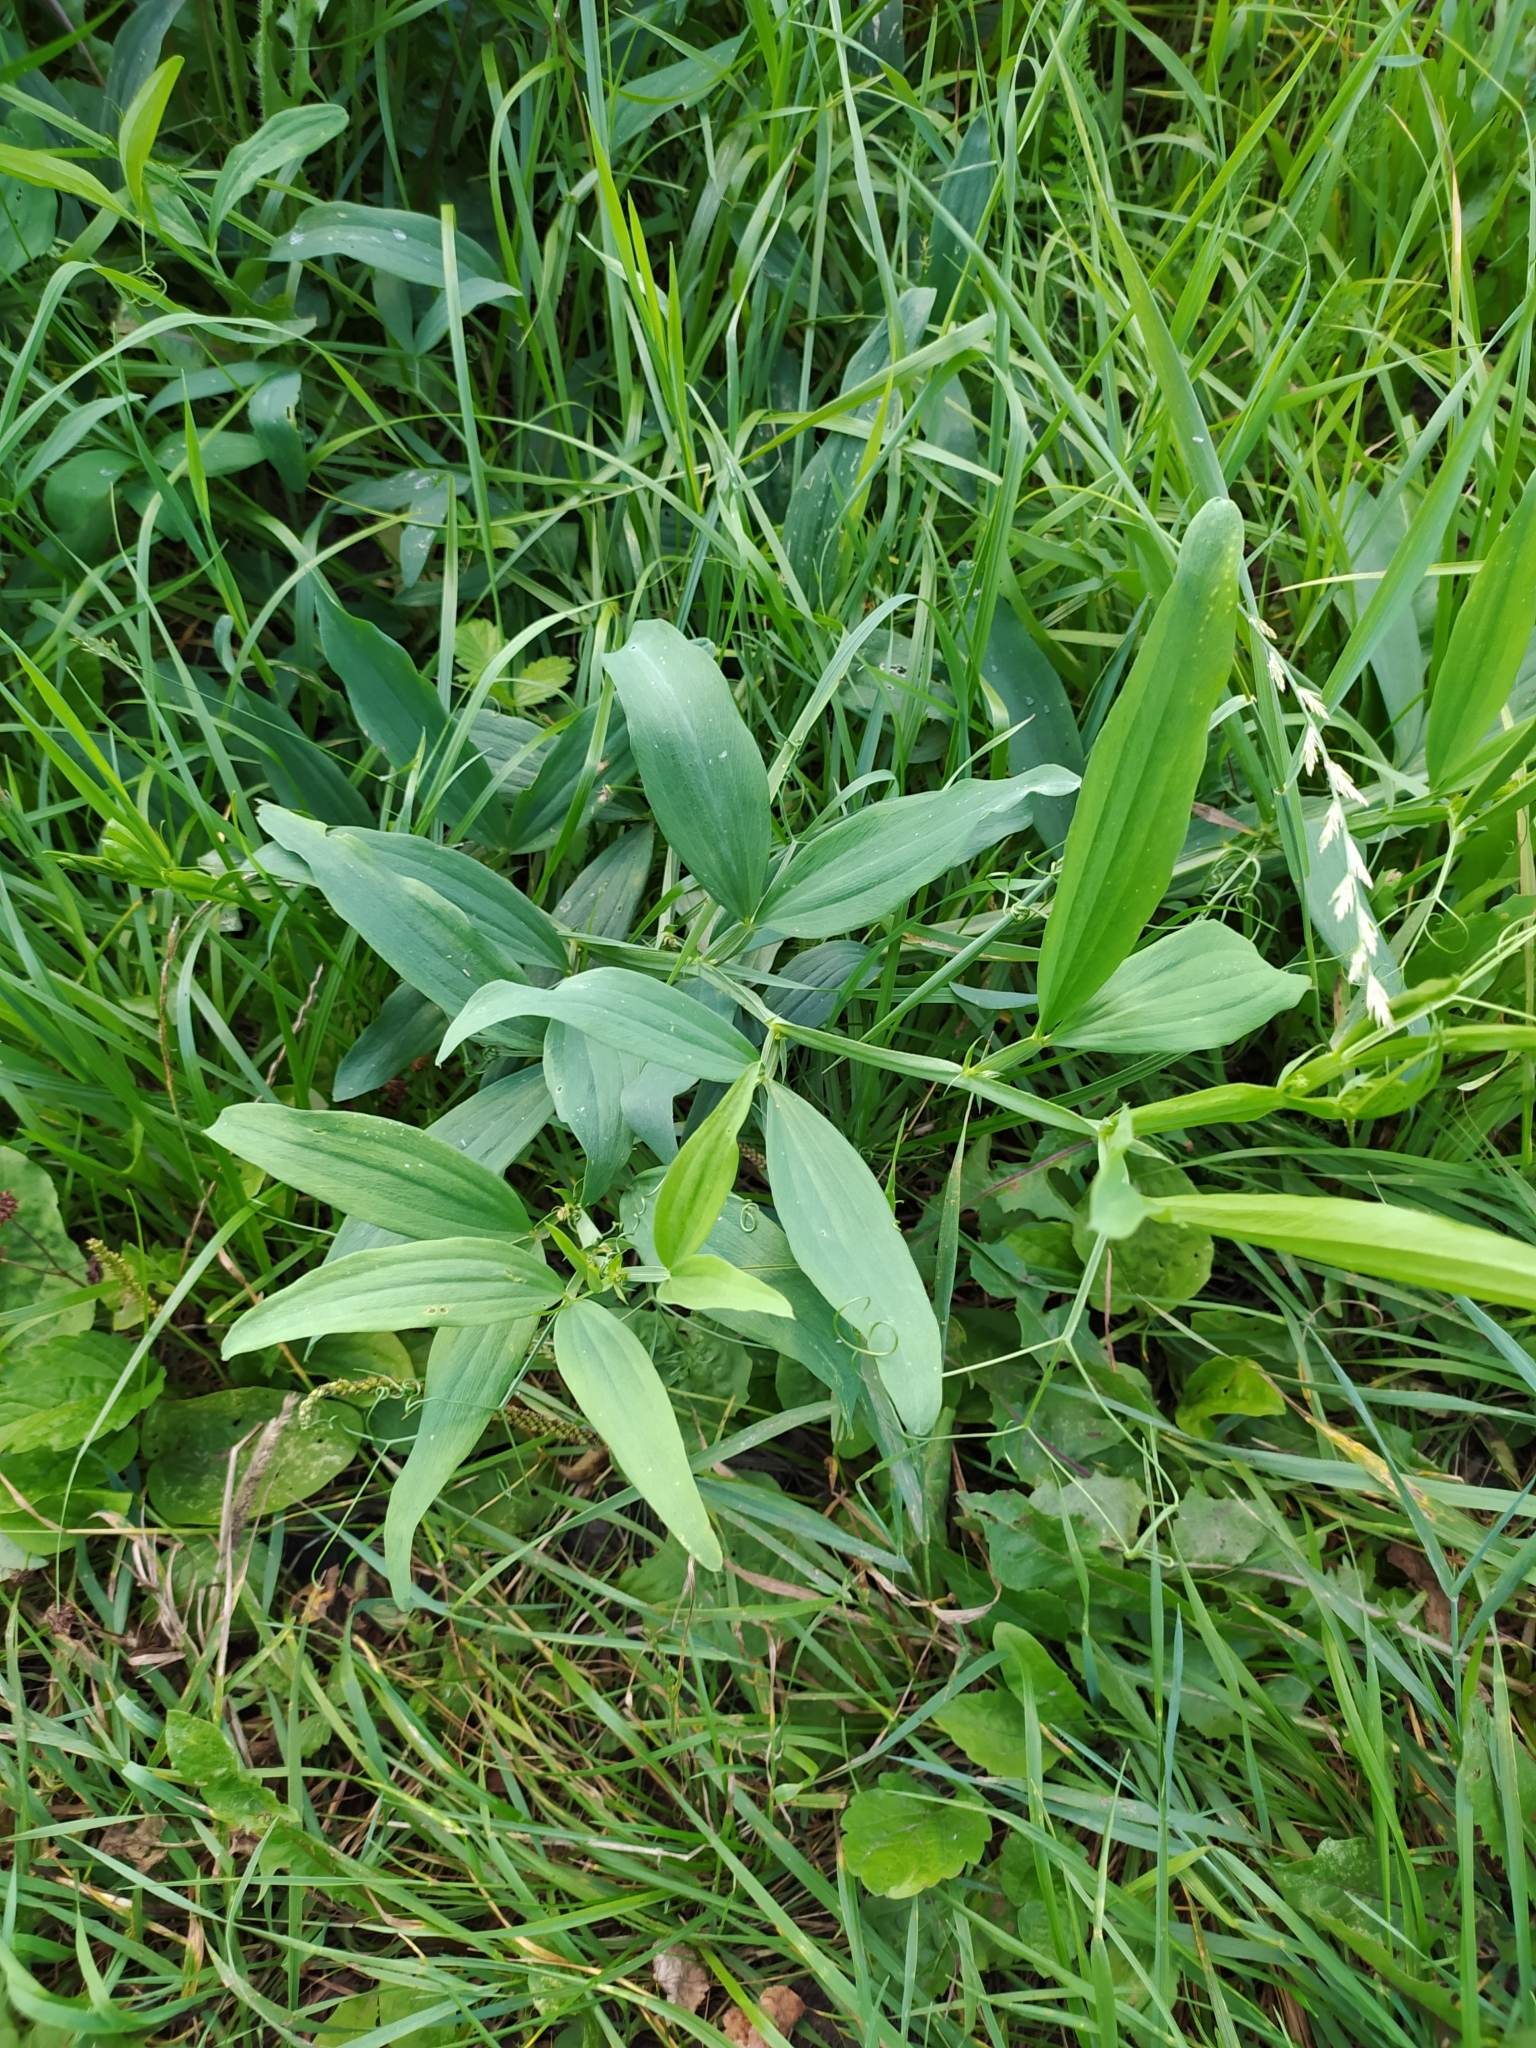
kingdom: Plantae
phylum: Tracheophyta
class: Magnoliopsida
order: Fabales
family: Fabaceae
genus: Lathyrus
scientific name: Lathyrus sylvestris
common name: Flat pea
